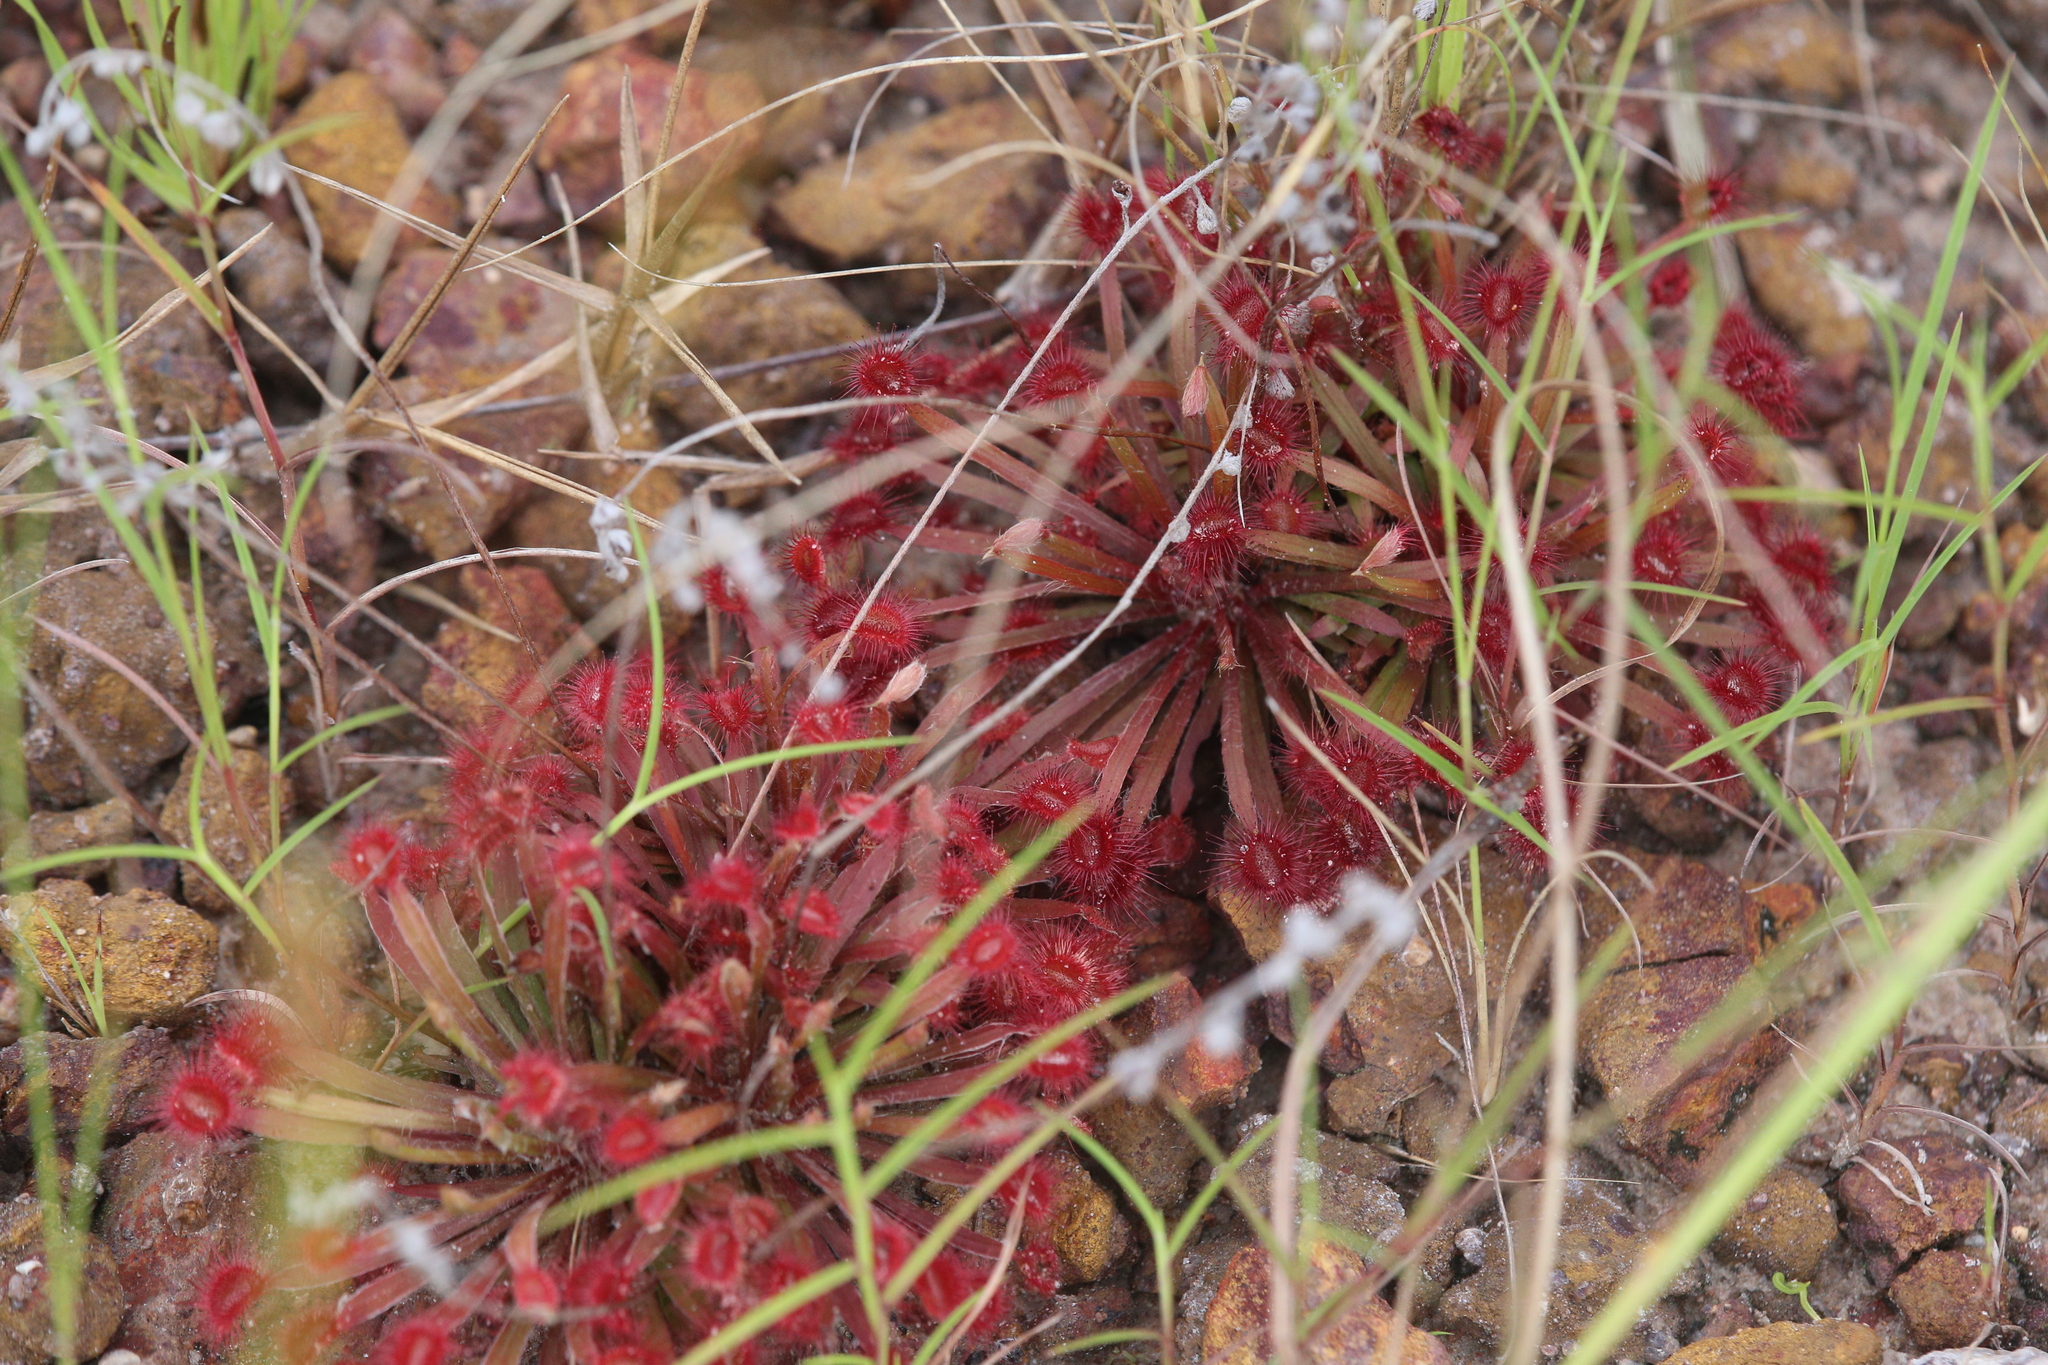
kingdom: Plantae
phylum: Tracheophyta
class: Magnoliopsida
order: Caryophyllales
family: Droseraceae
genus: Drosera
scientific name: Drosera dilatatopetiolaris
